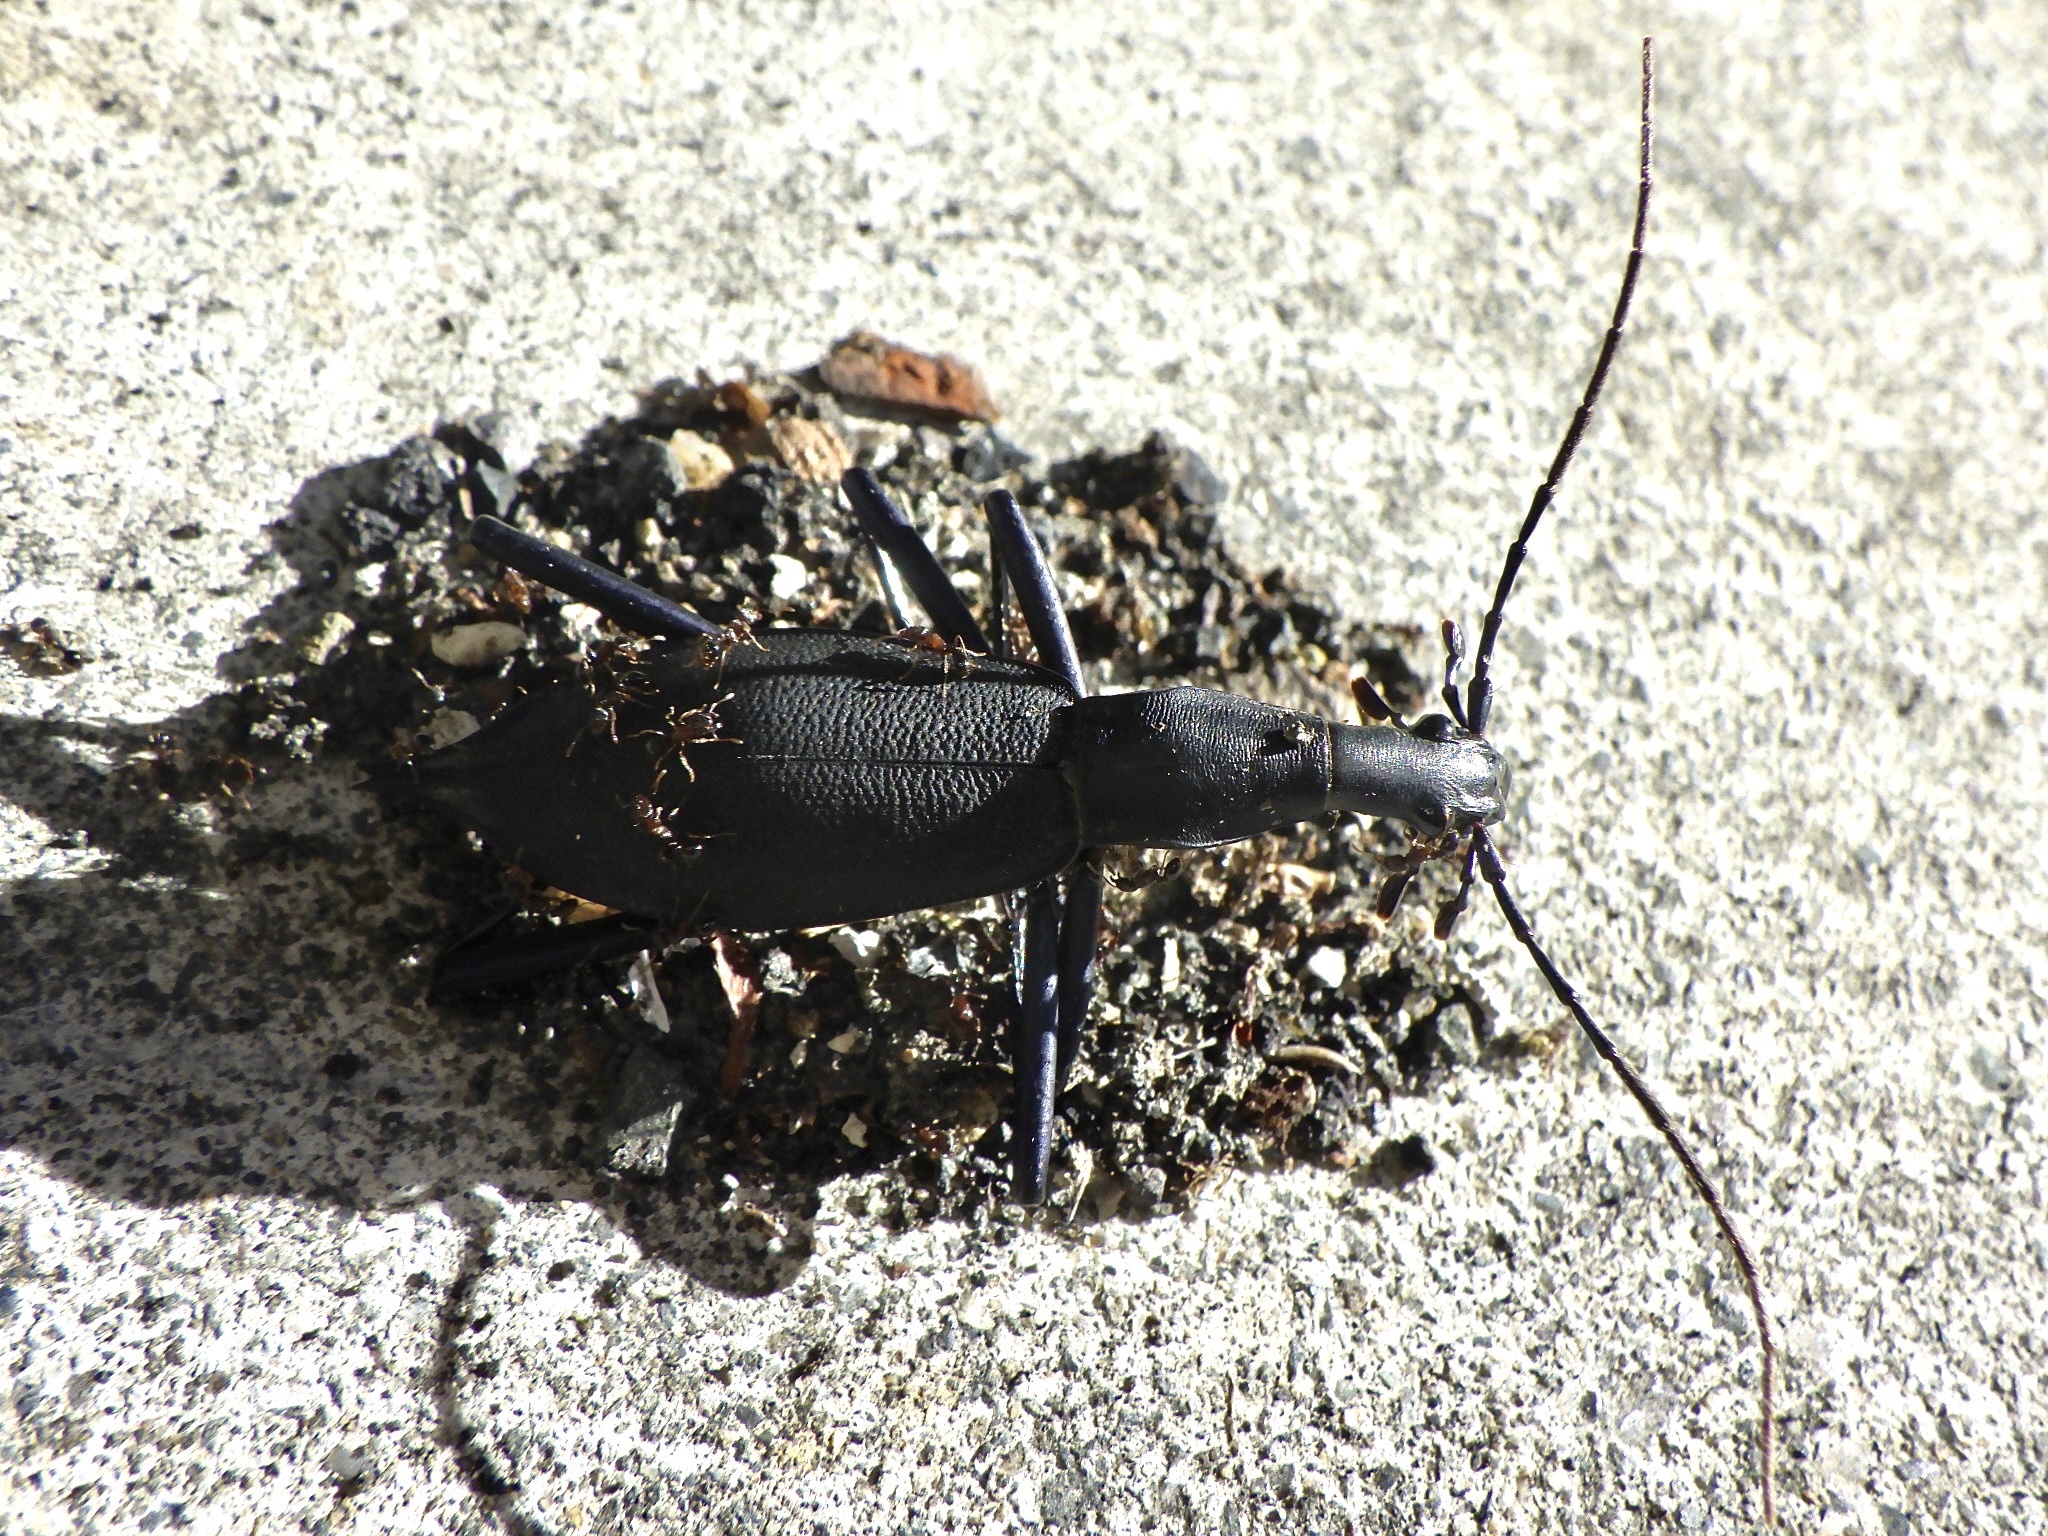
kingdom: Animalia
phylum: Arthropoda
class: Insecta
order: Coleoptera
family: Carabidae
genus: Carabus
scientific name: Carabus blaptoides
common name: Snail-eating beetle
